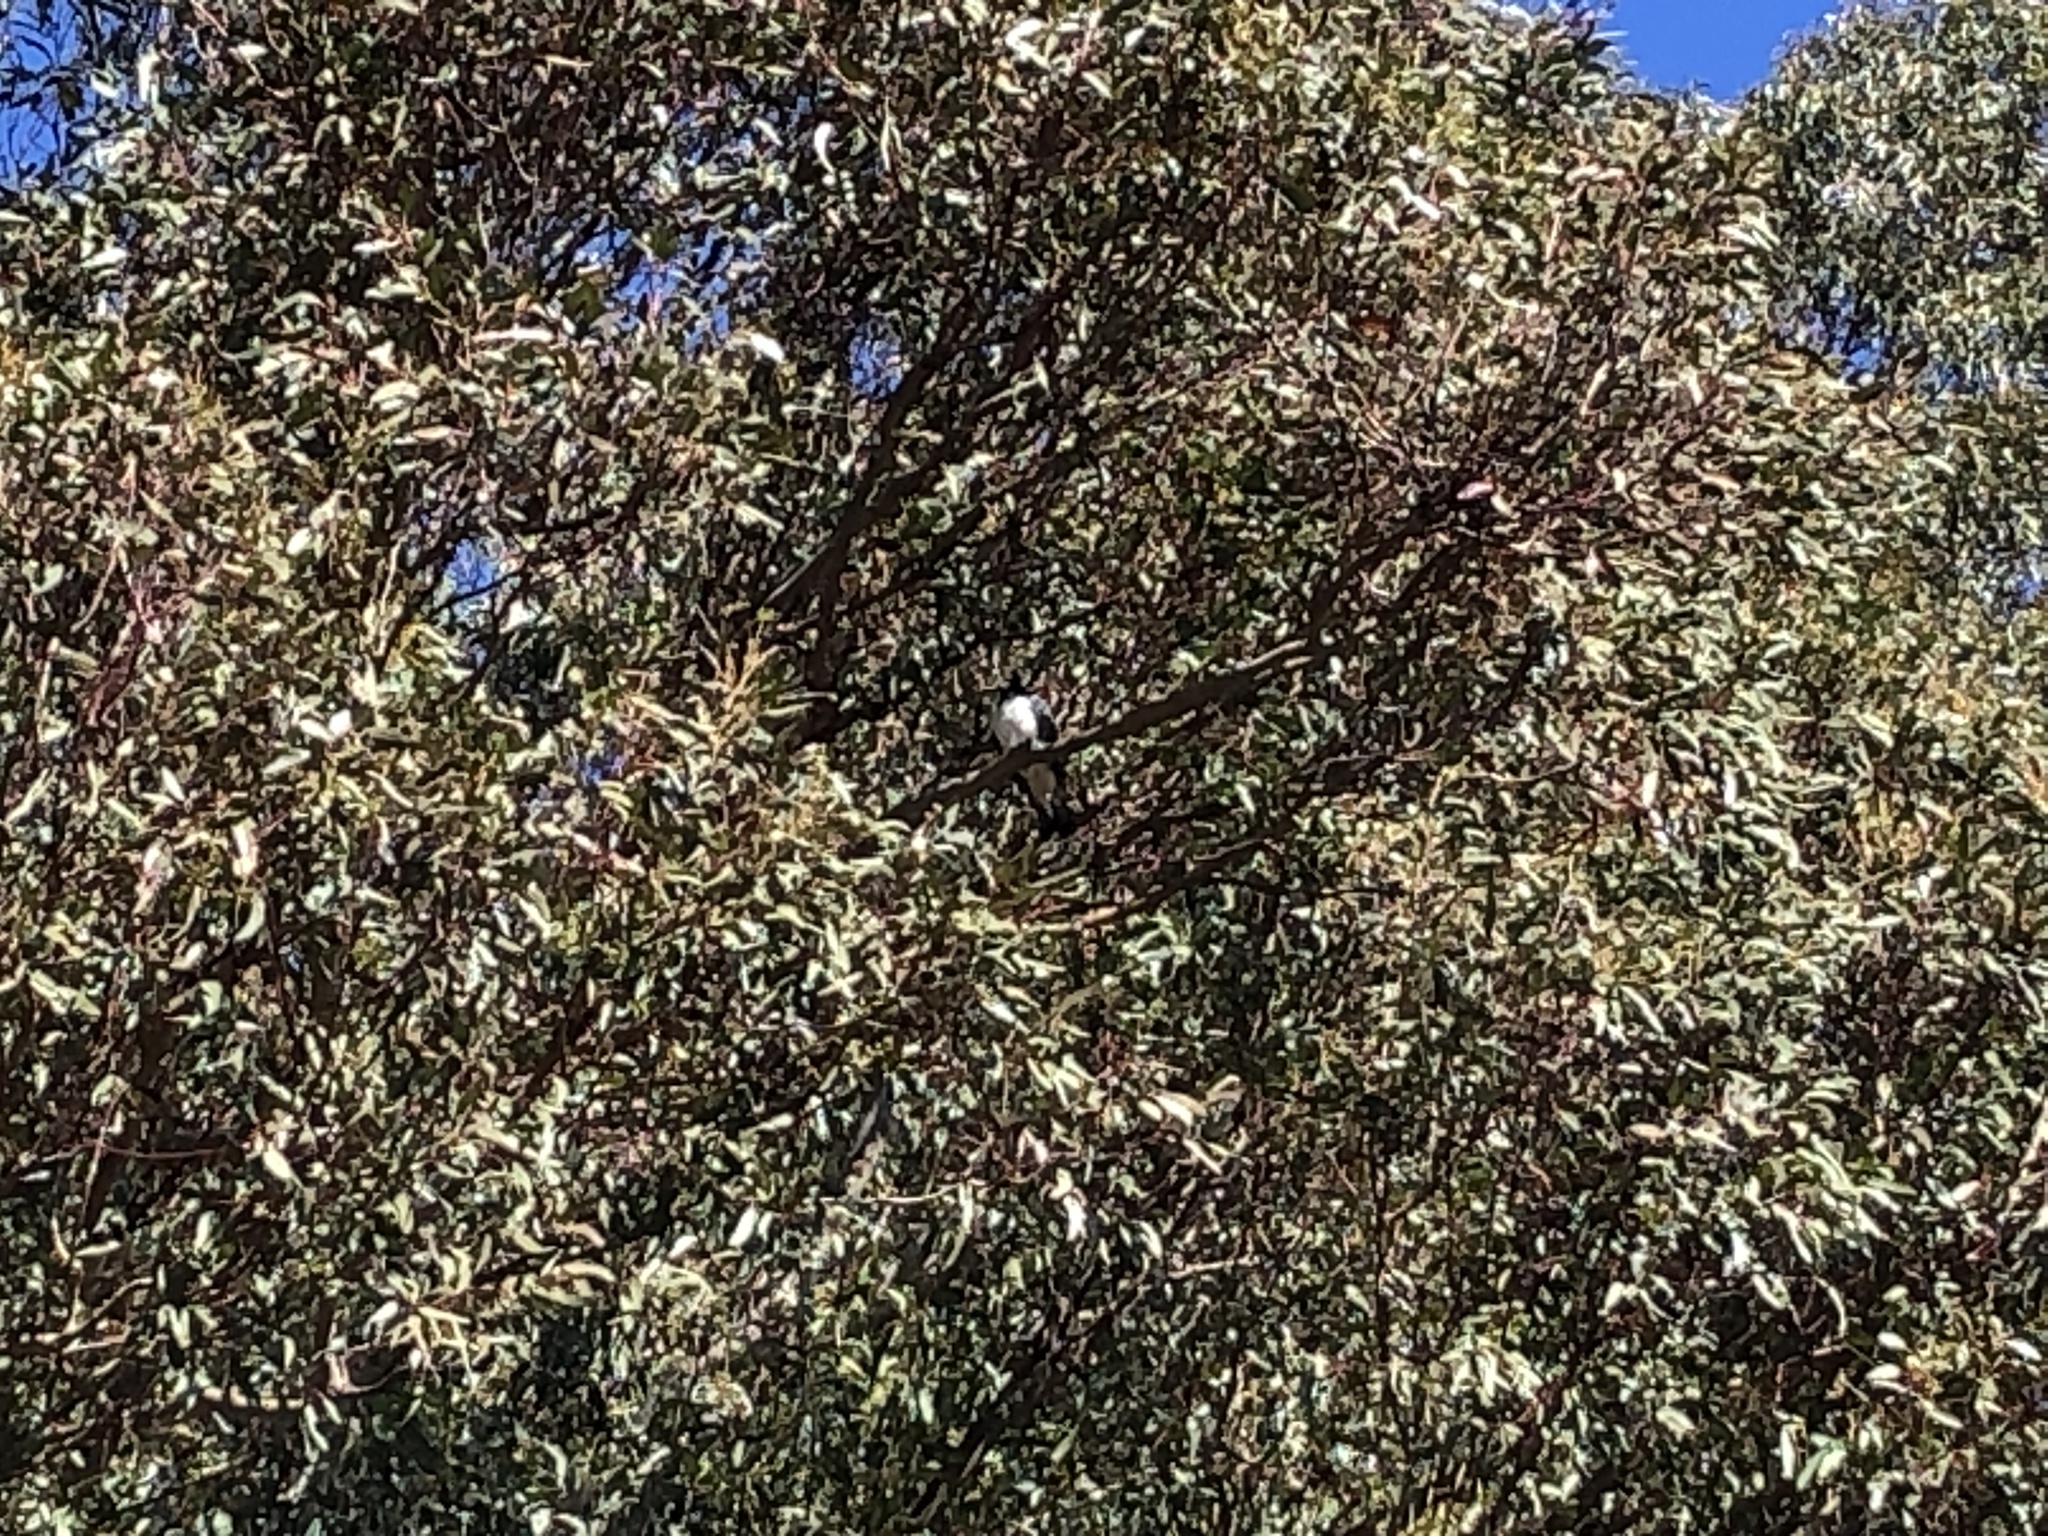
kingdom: Animalia
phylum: Chordata
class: Aves
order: Columbiformes
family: Columbidae
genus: Hemiphaga
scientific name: Hemiphaga novaeseelandiae
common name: New zealand pigeon
